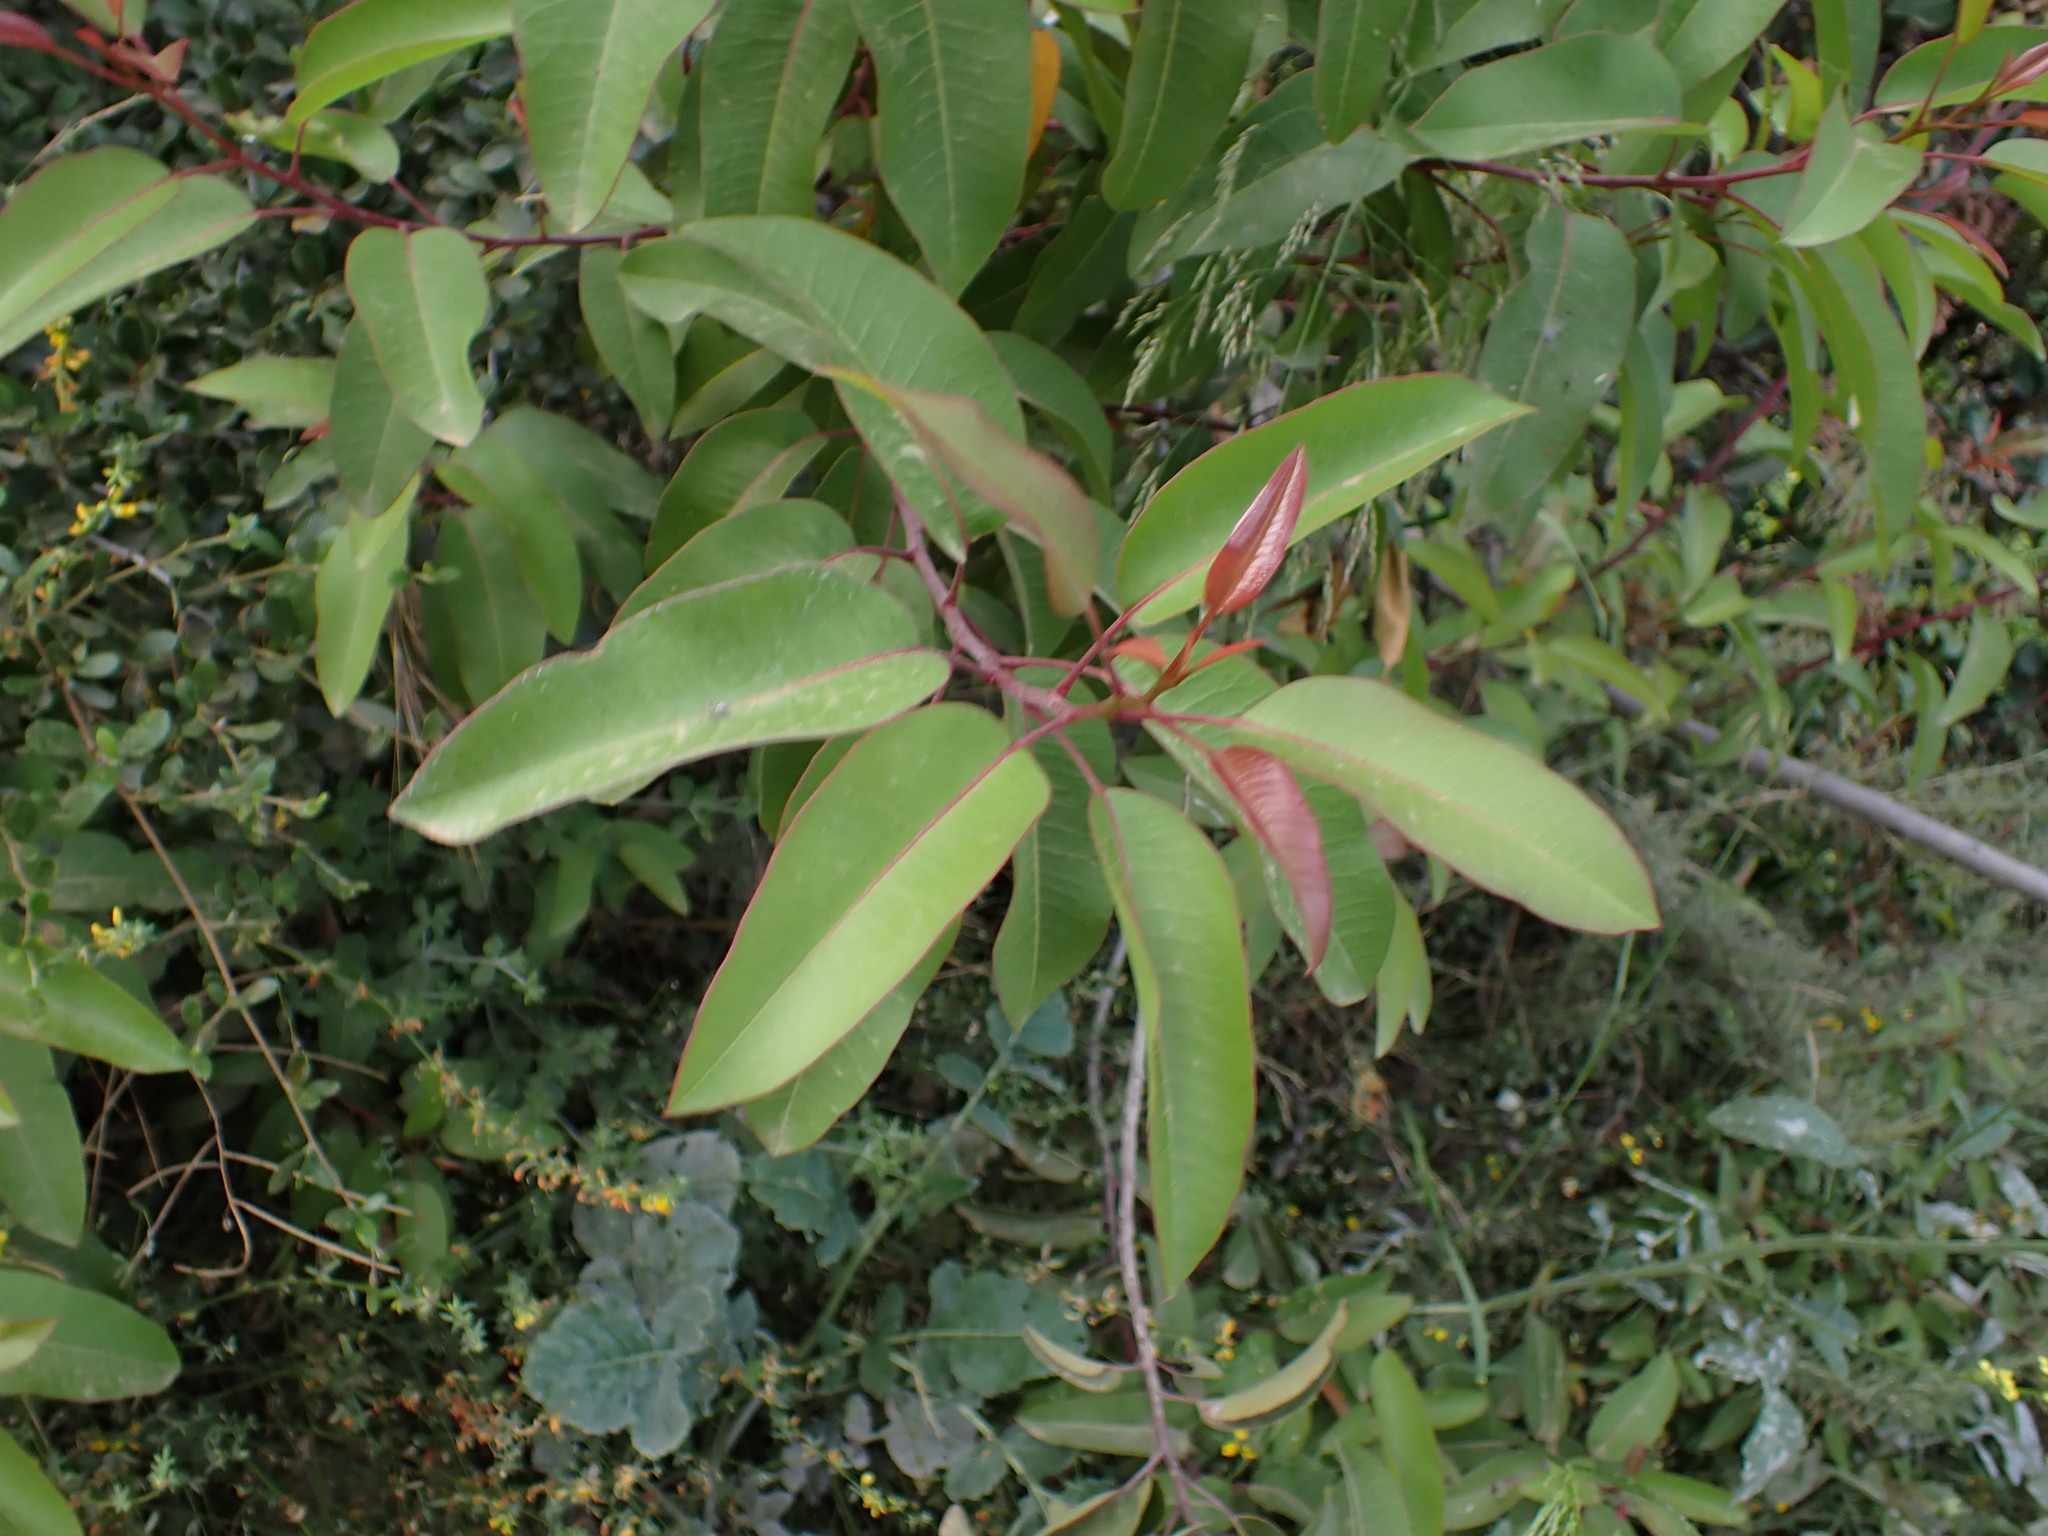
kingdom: Plantae
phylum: Tracheophyta
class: Magnoliopsida
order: Sapindales
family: Anacardiaceae
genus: Malosma
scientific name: Malosma laurina
